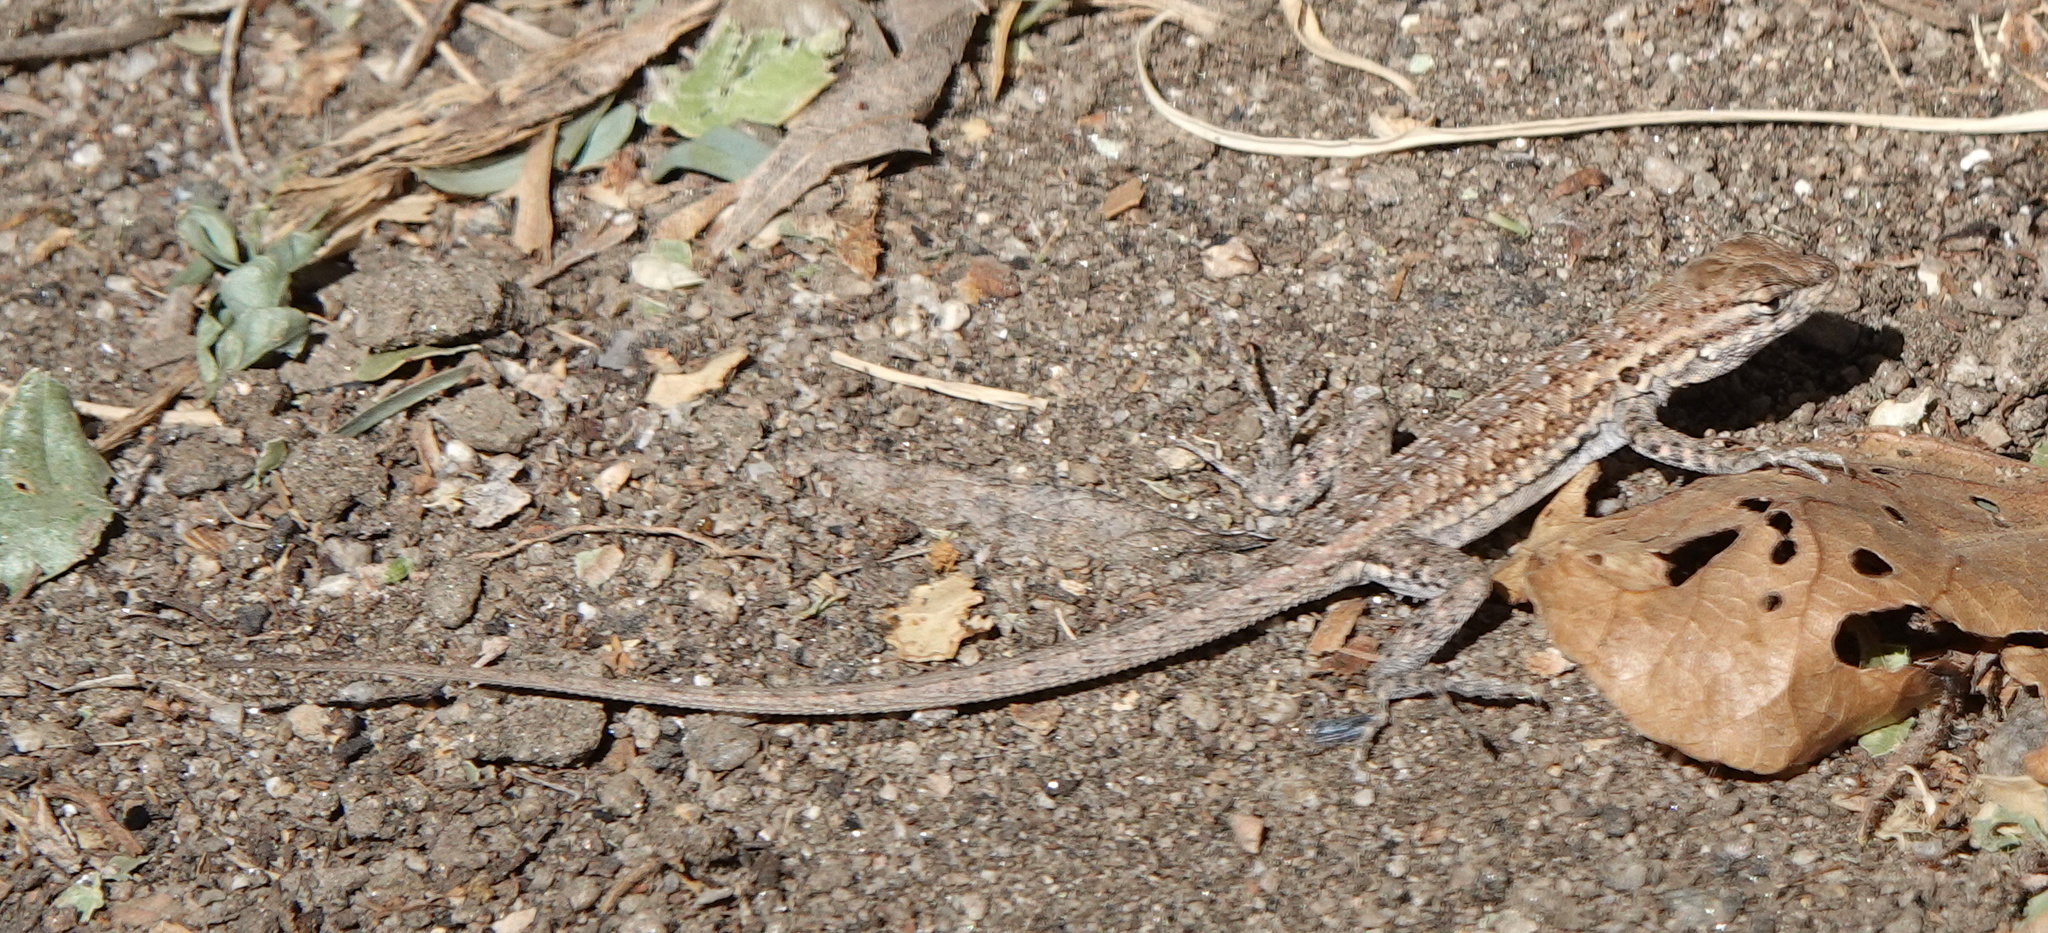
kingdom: Animalia
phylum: Chordata
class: Squamata
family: Phrynosomatidae
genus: Uta
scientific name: Uta stansburiana
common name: Side-blotched lizard
